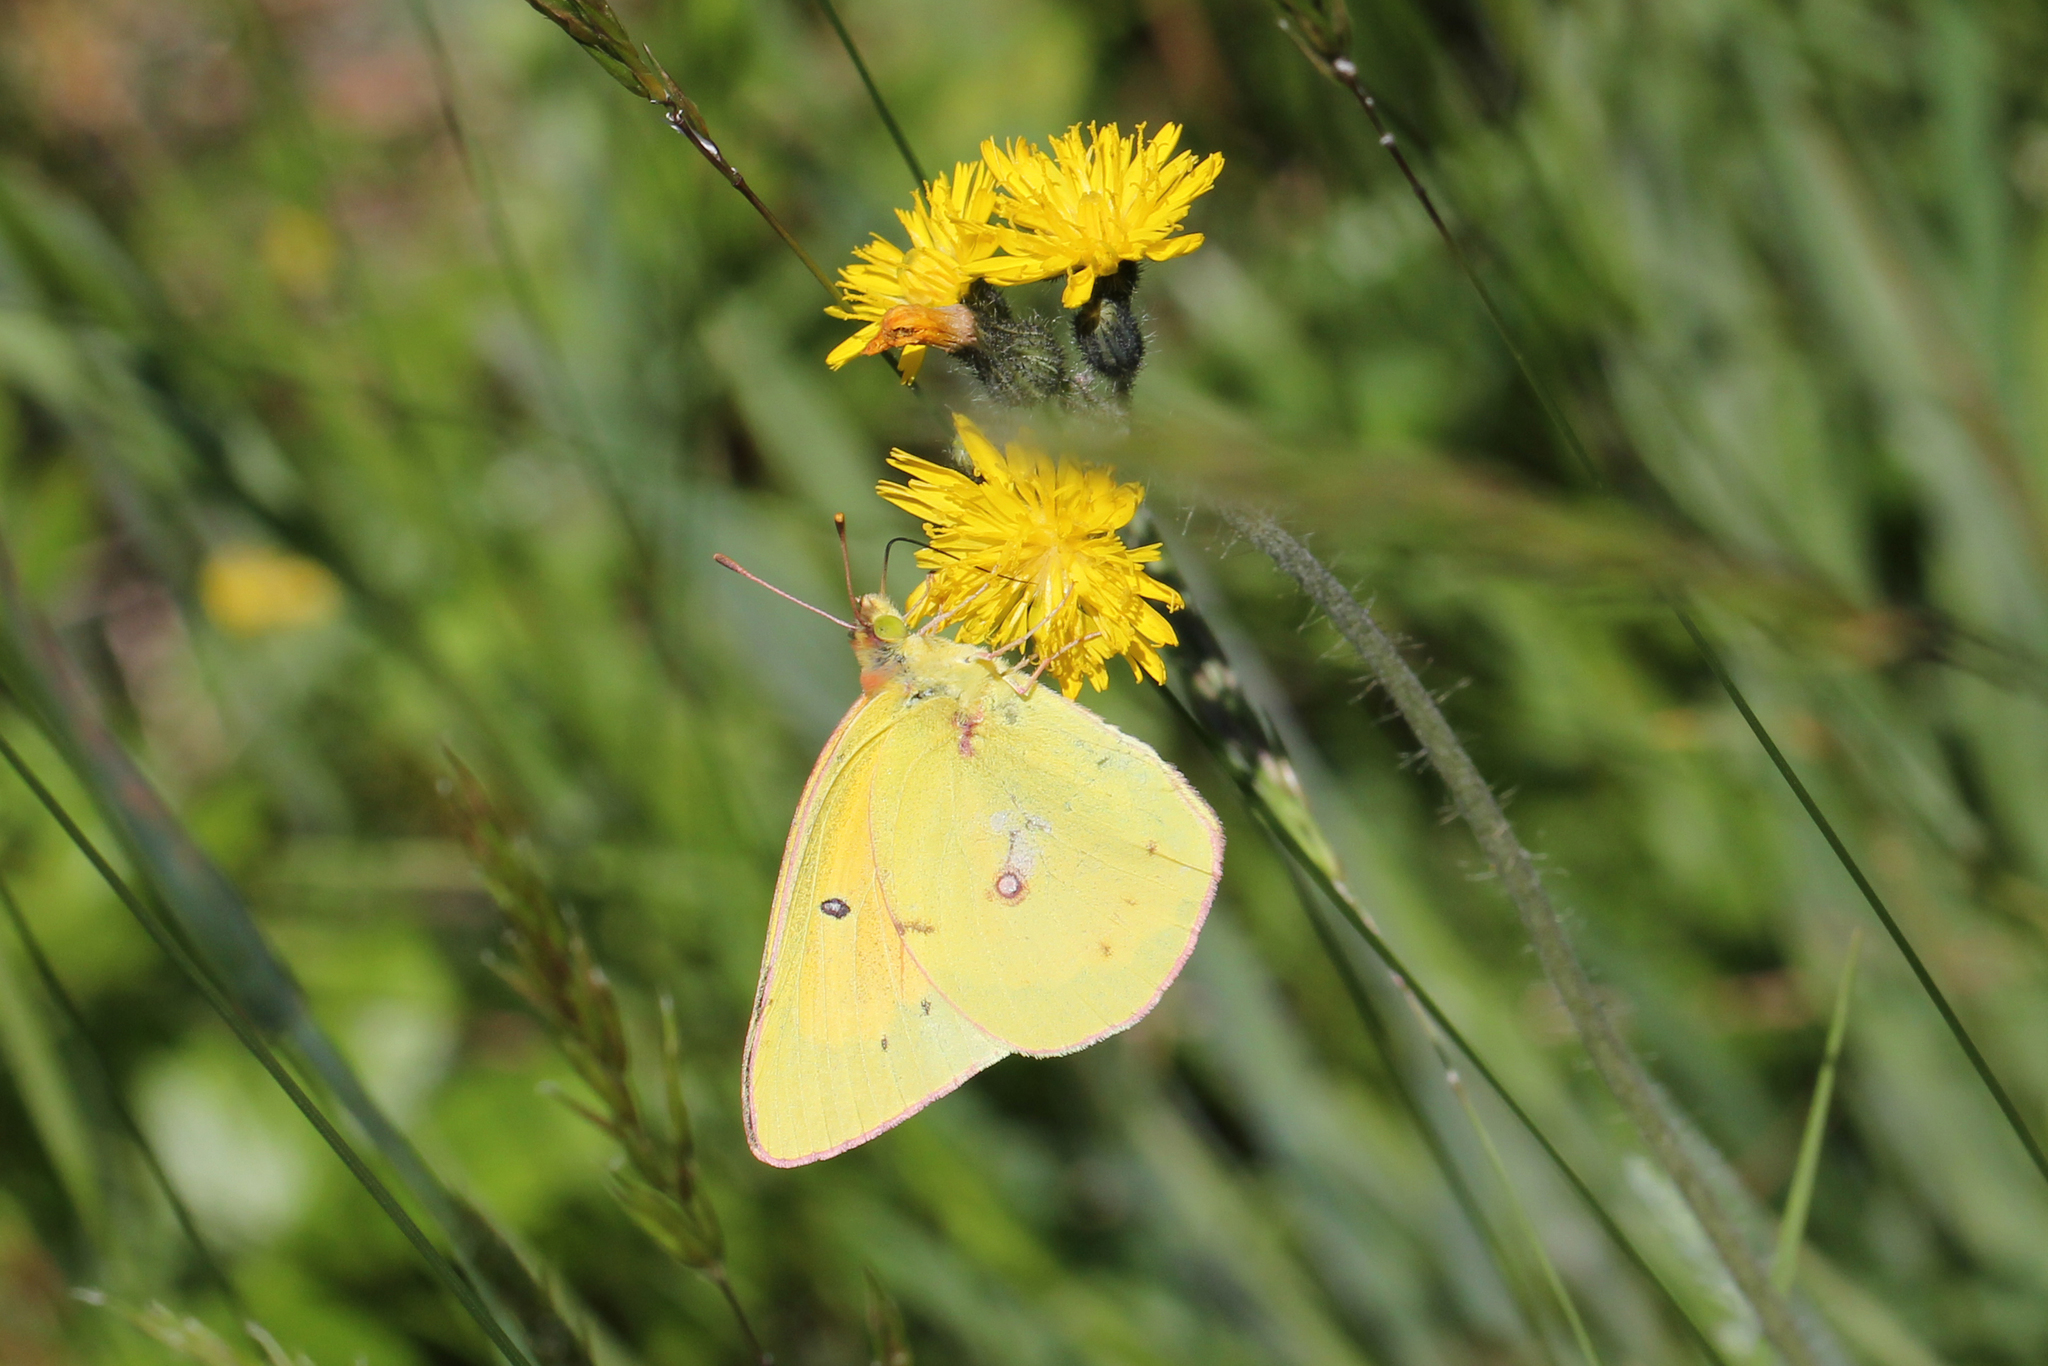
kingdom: Animalia
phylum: Arthropoda
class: Insecta
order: Lepidoptera
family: Pieridae
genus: Colias
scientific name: Colias eurytheme
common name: Alfalfa butterfly
